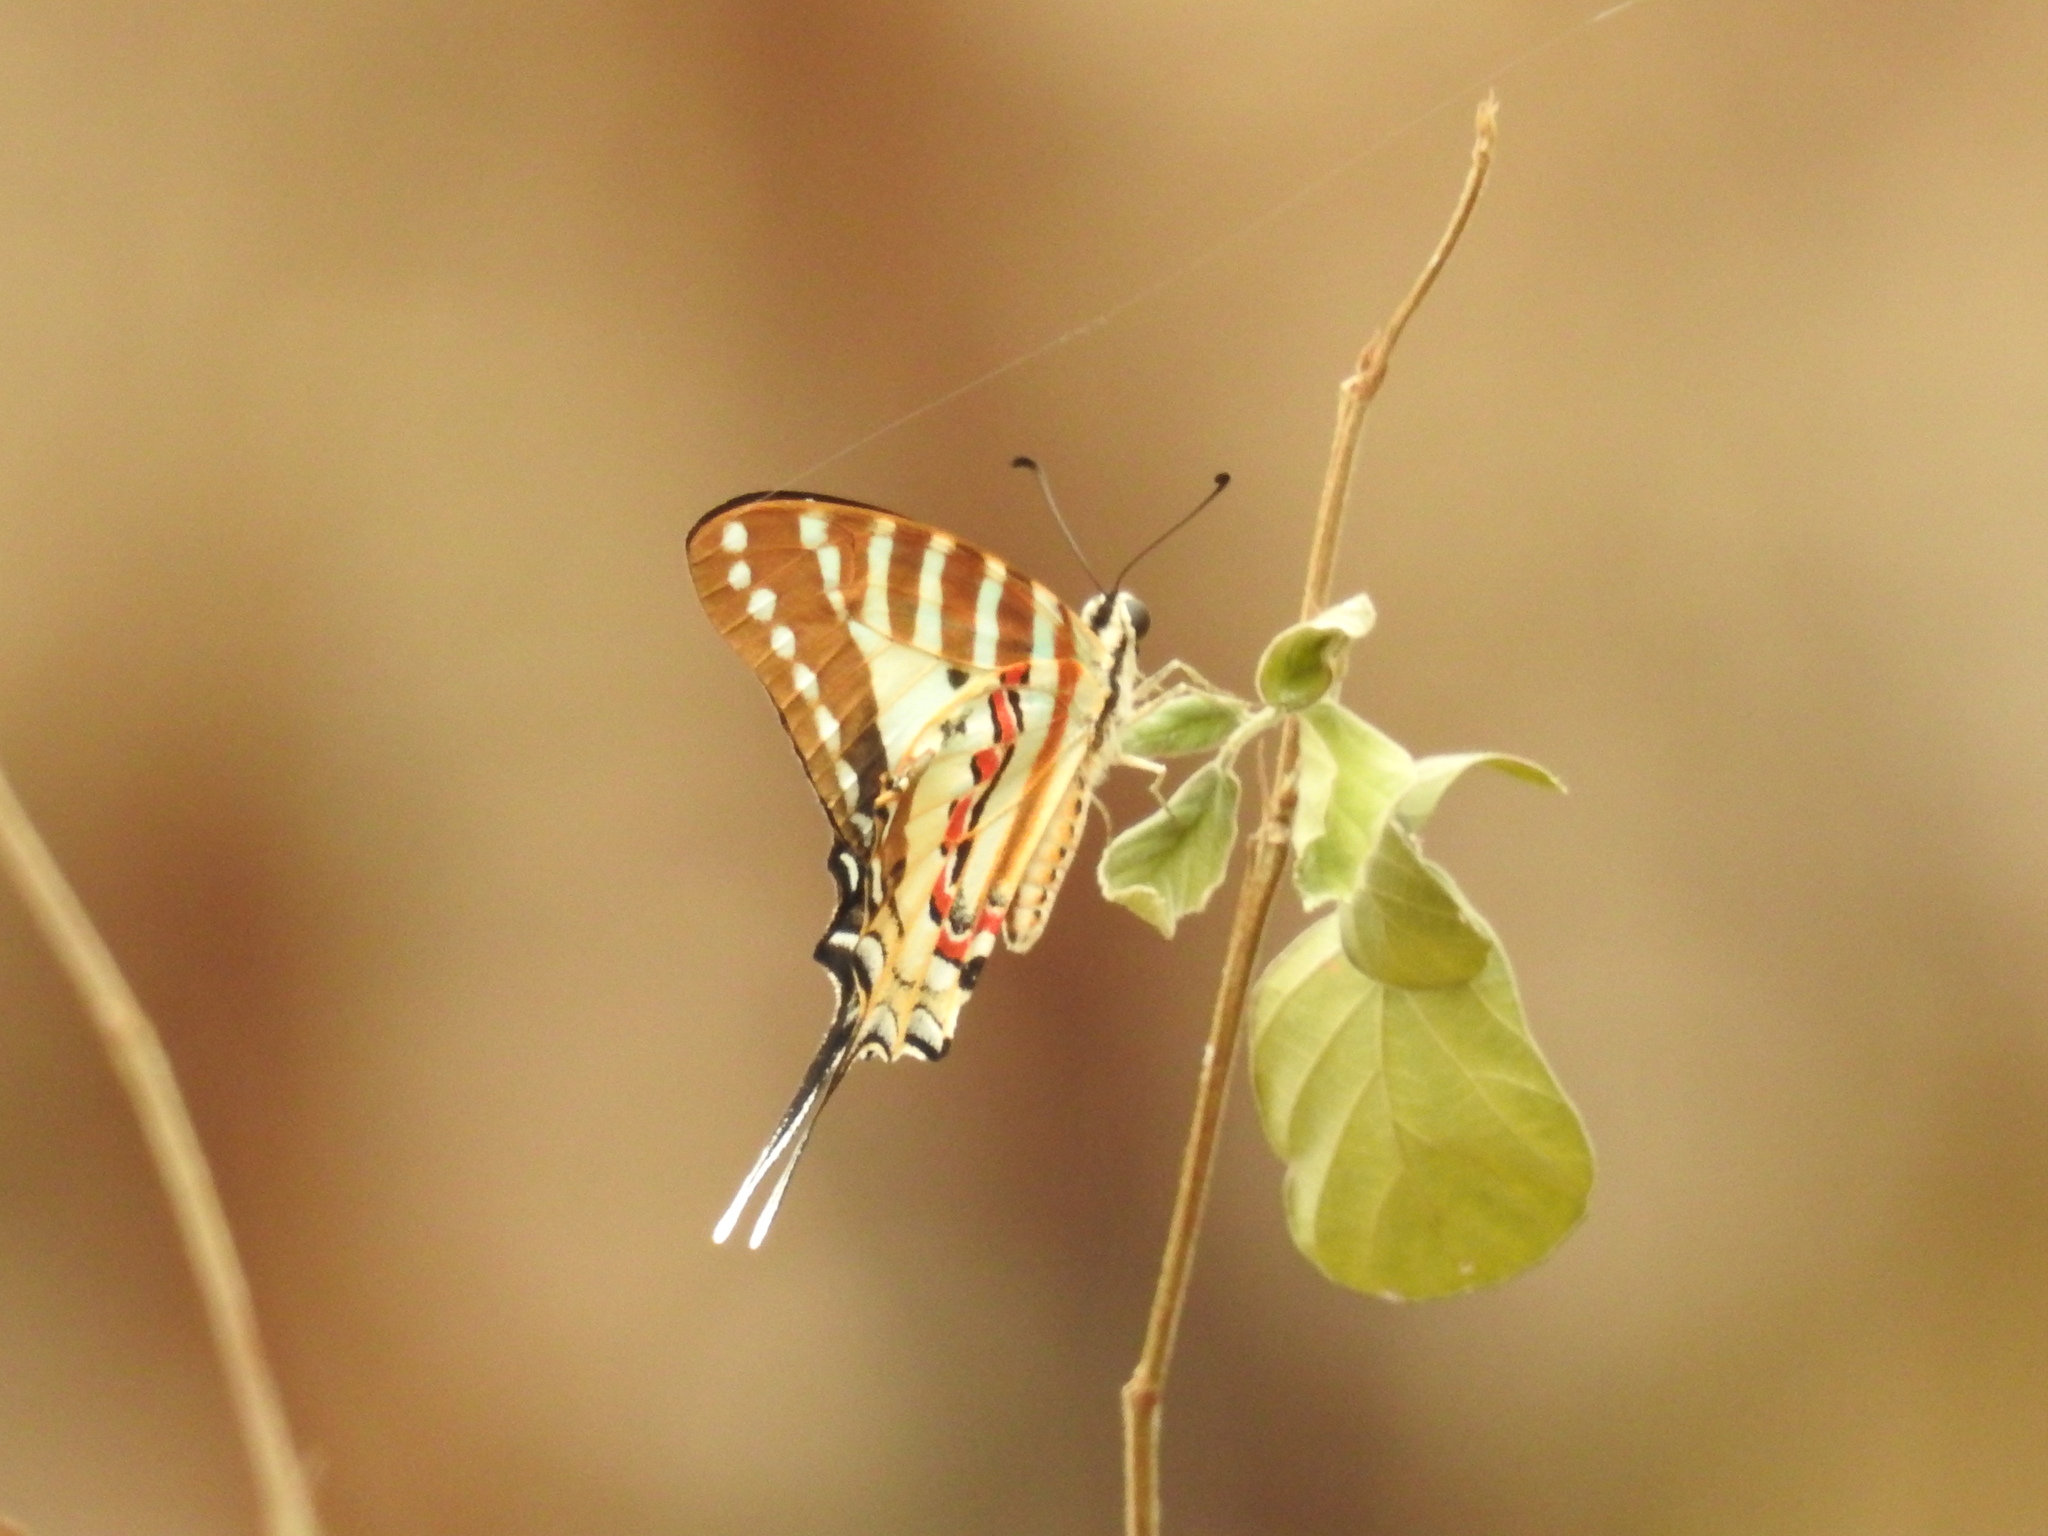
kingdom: Animalia
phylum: Arthropoda
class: Insecta
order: Lepidoptera
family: Papilionidae
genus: Graphium
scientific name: Graphium nomius
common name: Spot swordtail
